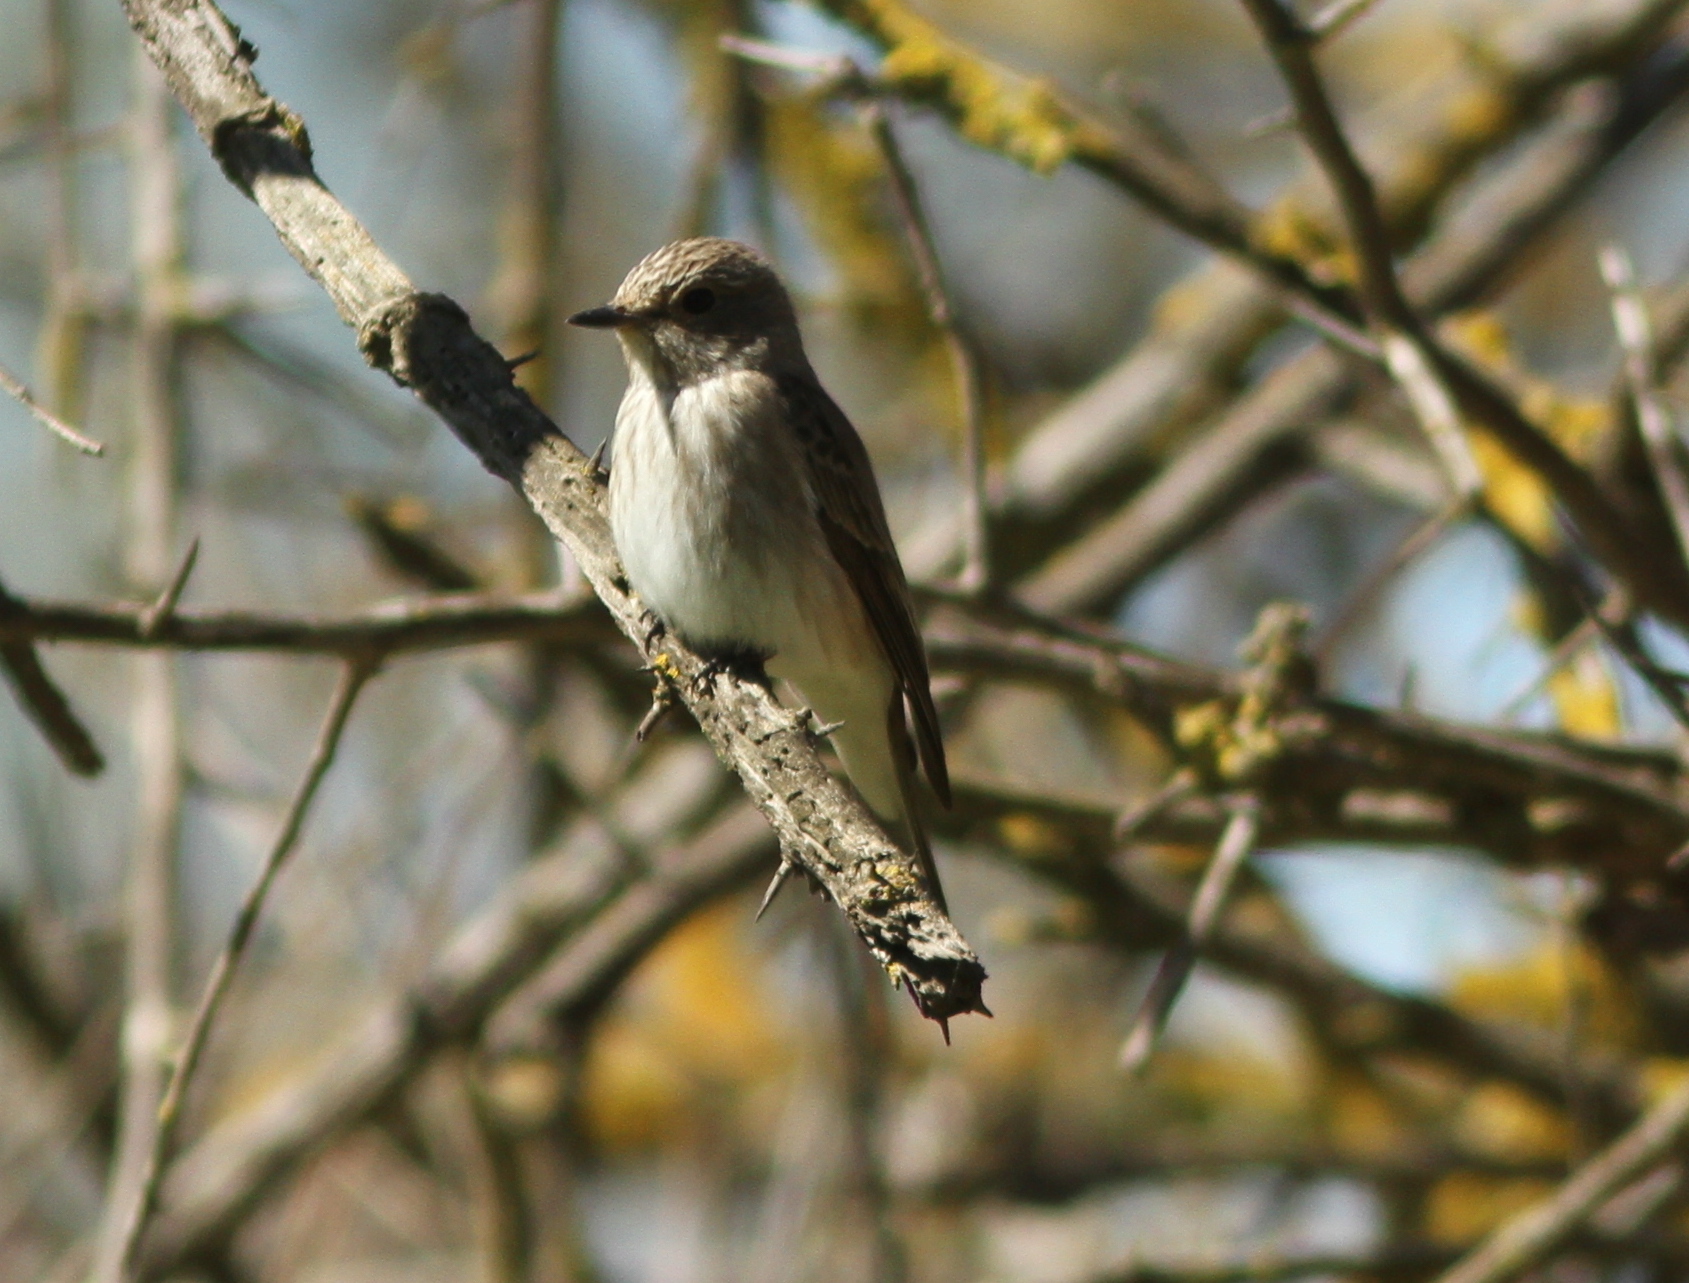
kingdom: Animalia
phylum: Chordata
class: Aves
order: Passeriformes
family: Muscicapidae
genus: Muscicapa
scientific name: Muscicapa striata
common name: Spotted flycatcher
